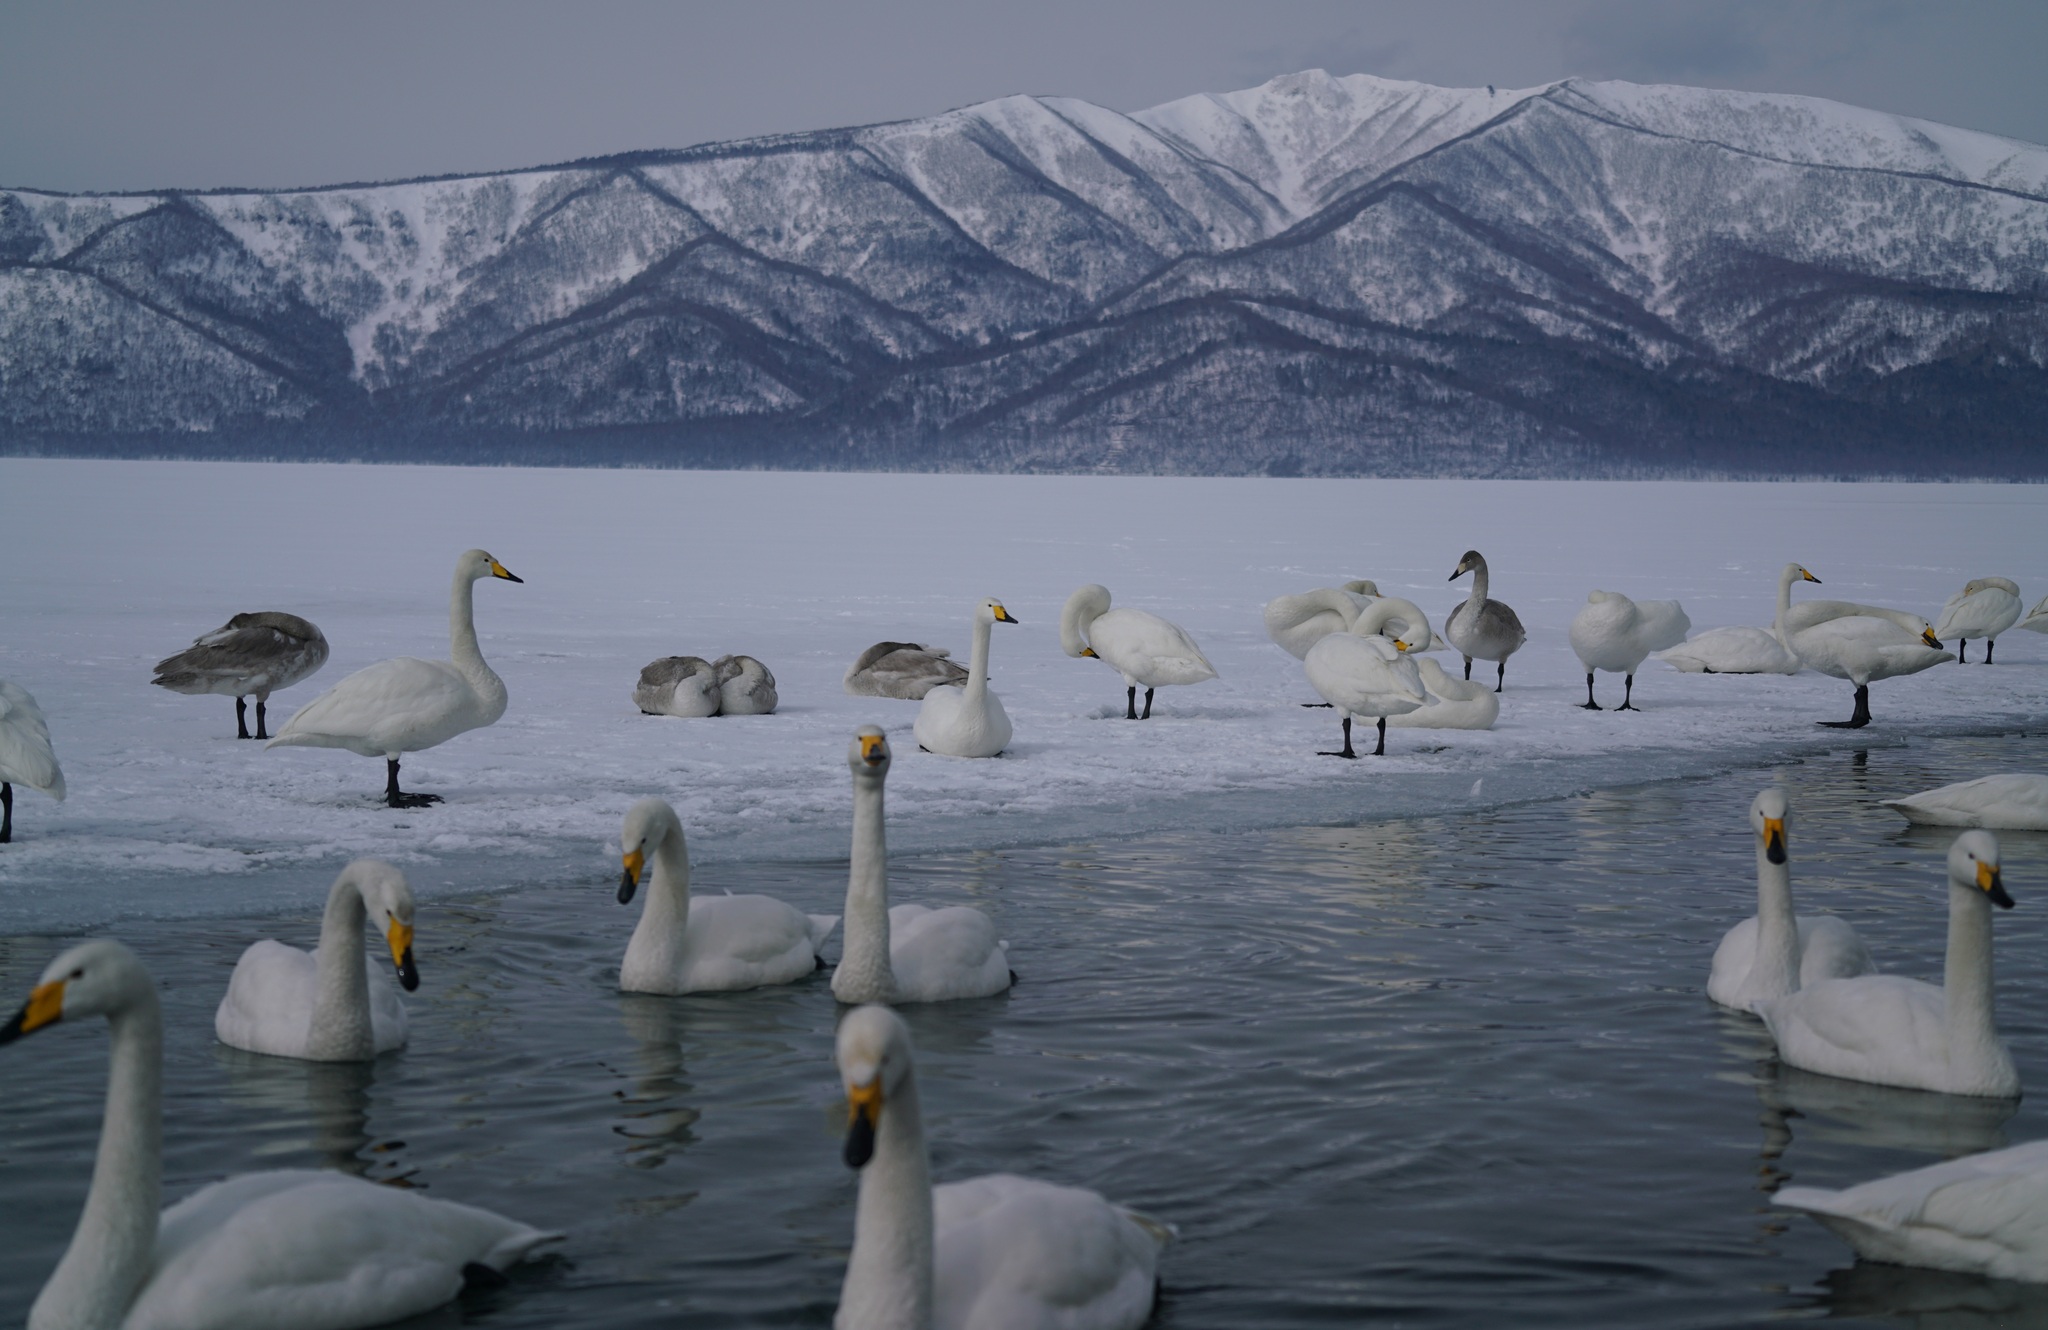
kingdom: Animalia
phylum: Chordata
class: Aves
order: Anseriformes
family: Anatidae
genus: Cygnus
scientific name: Cygnus cygnus
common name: Whooper swan
